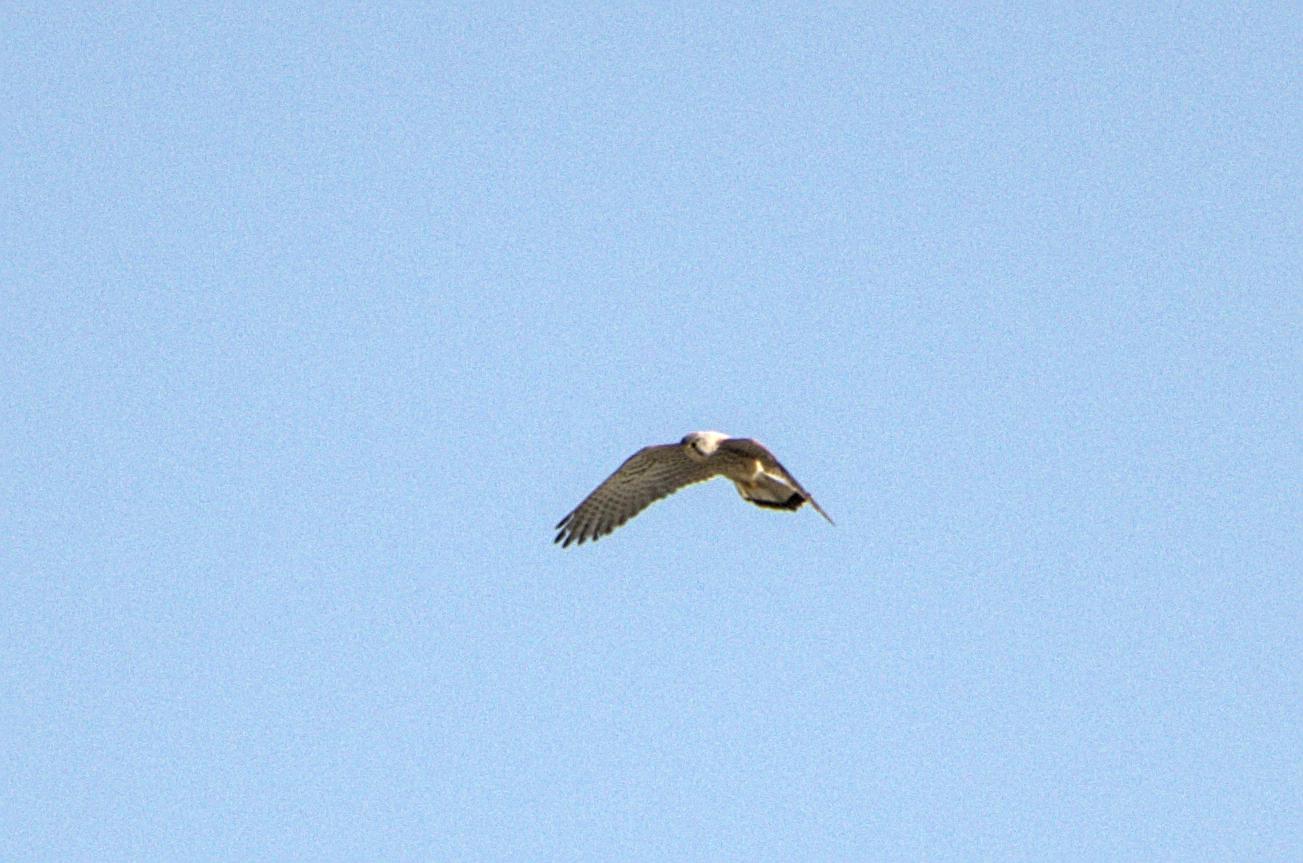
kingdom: Animalia
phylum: Chordata
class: Aves
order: Falconiformes
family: Falconidae
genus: Falco
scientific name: Falco tinnunculus
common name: Common kestrel
